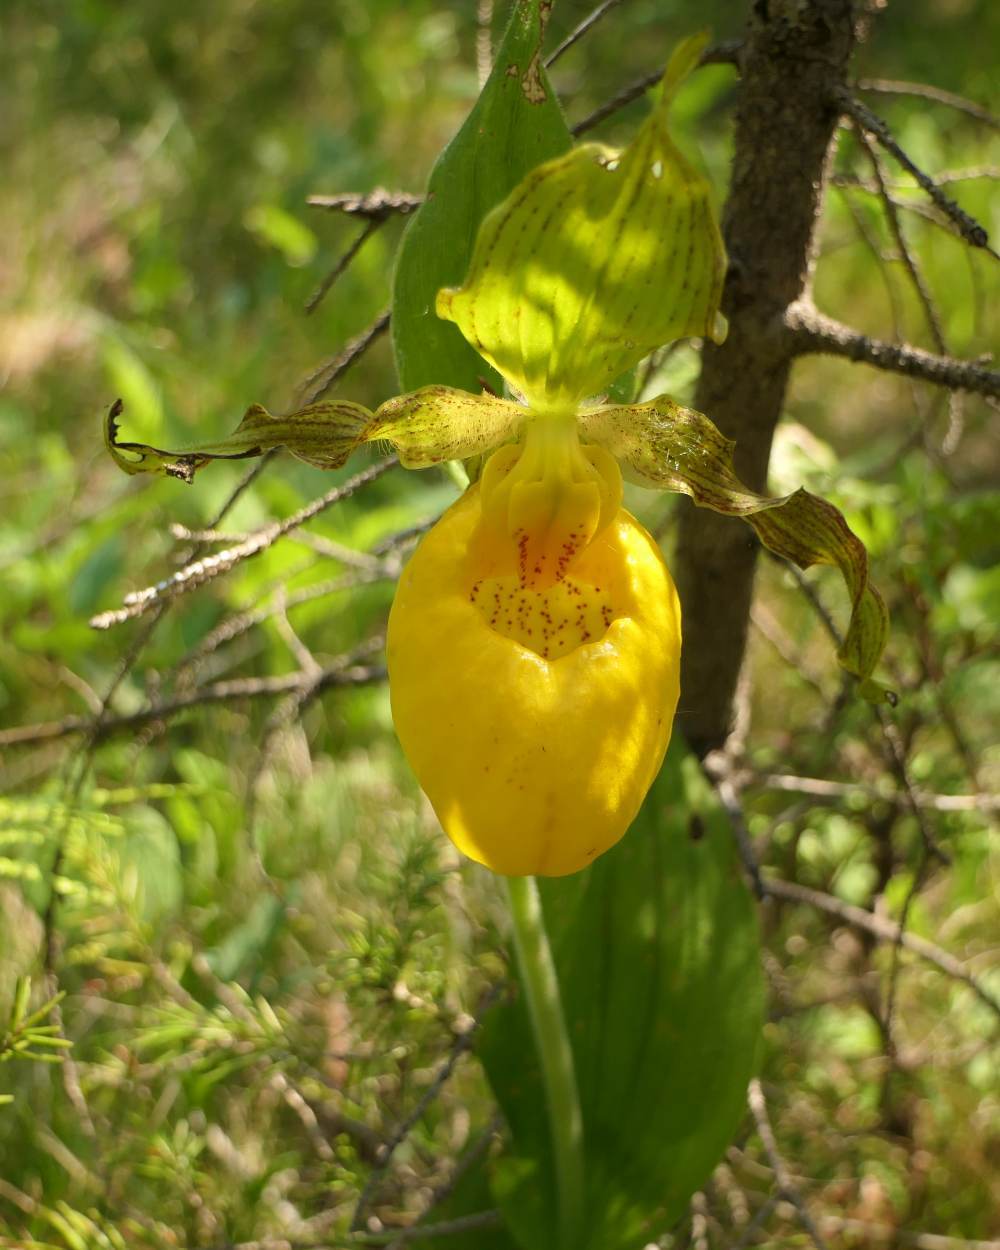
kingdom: Plantae
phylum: Tracheophyta
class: Liliopsida
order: Asparagales
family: Orchidaceae
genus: Cypripedium
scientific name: Cypripedium parviflorum
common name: American yellow lady's-slipper
